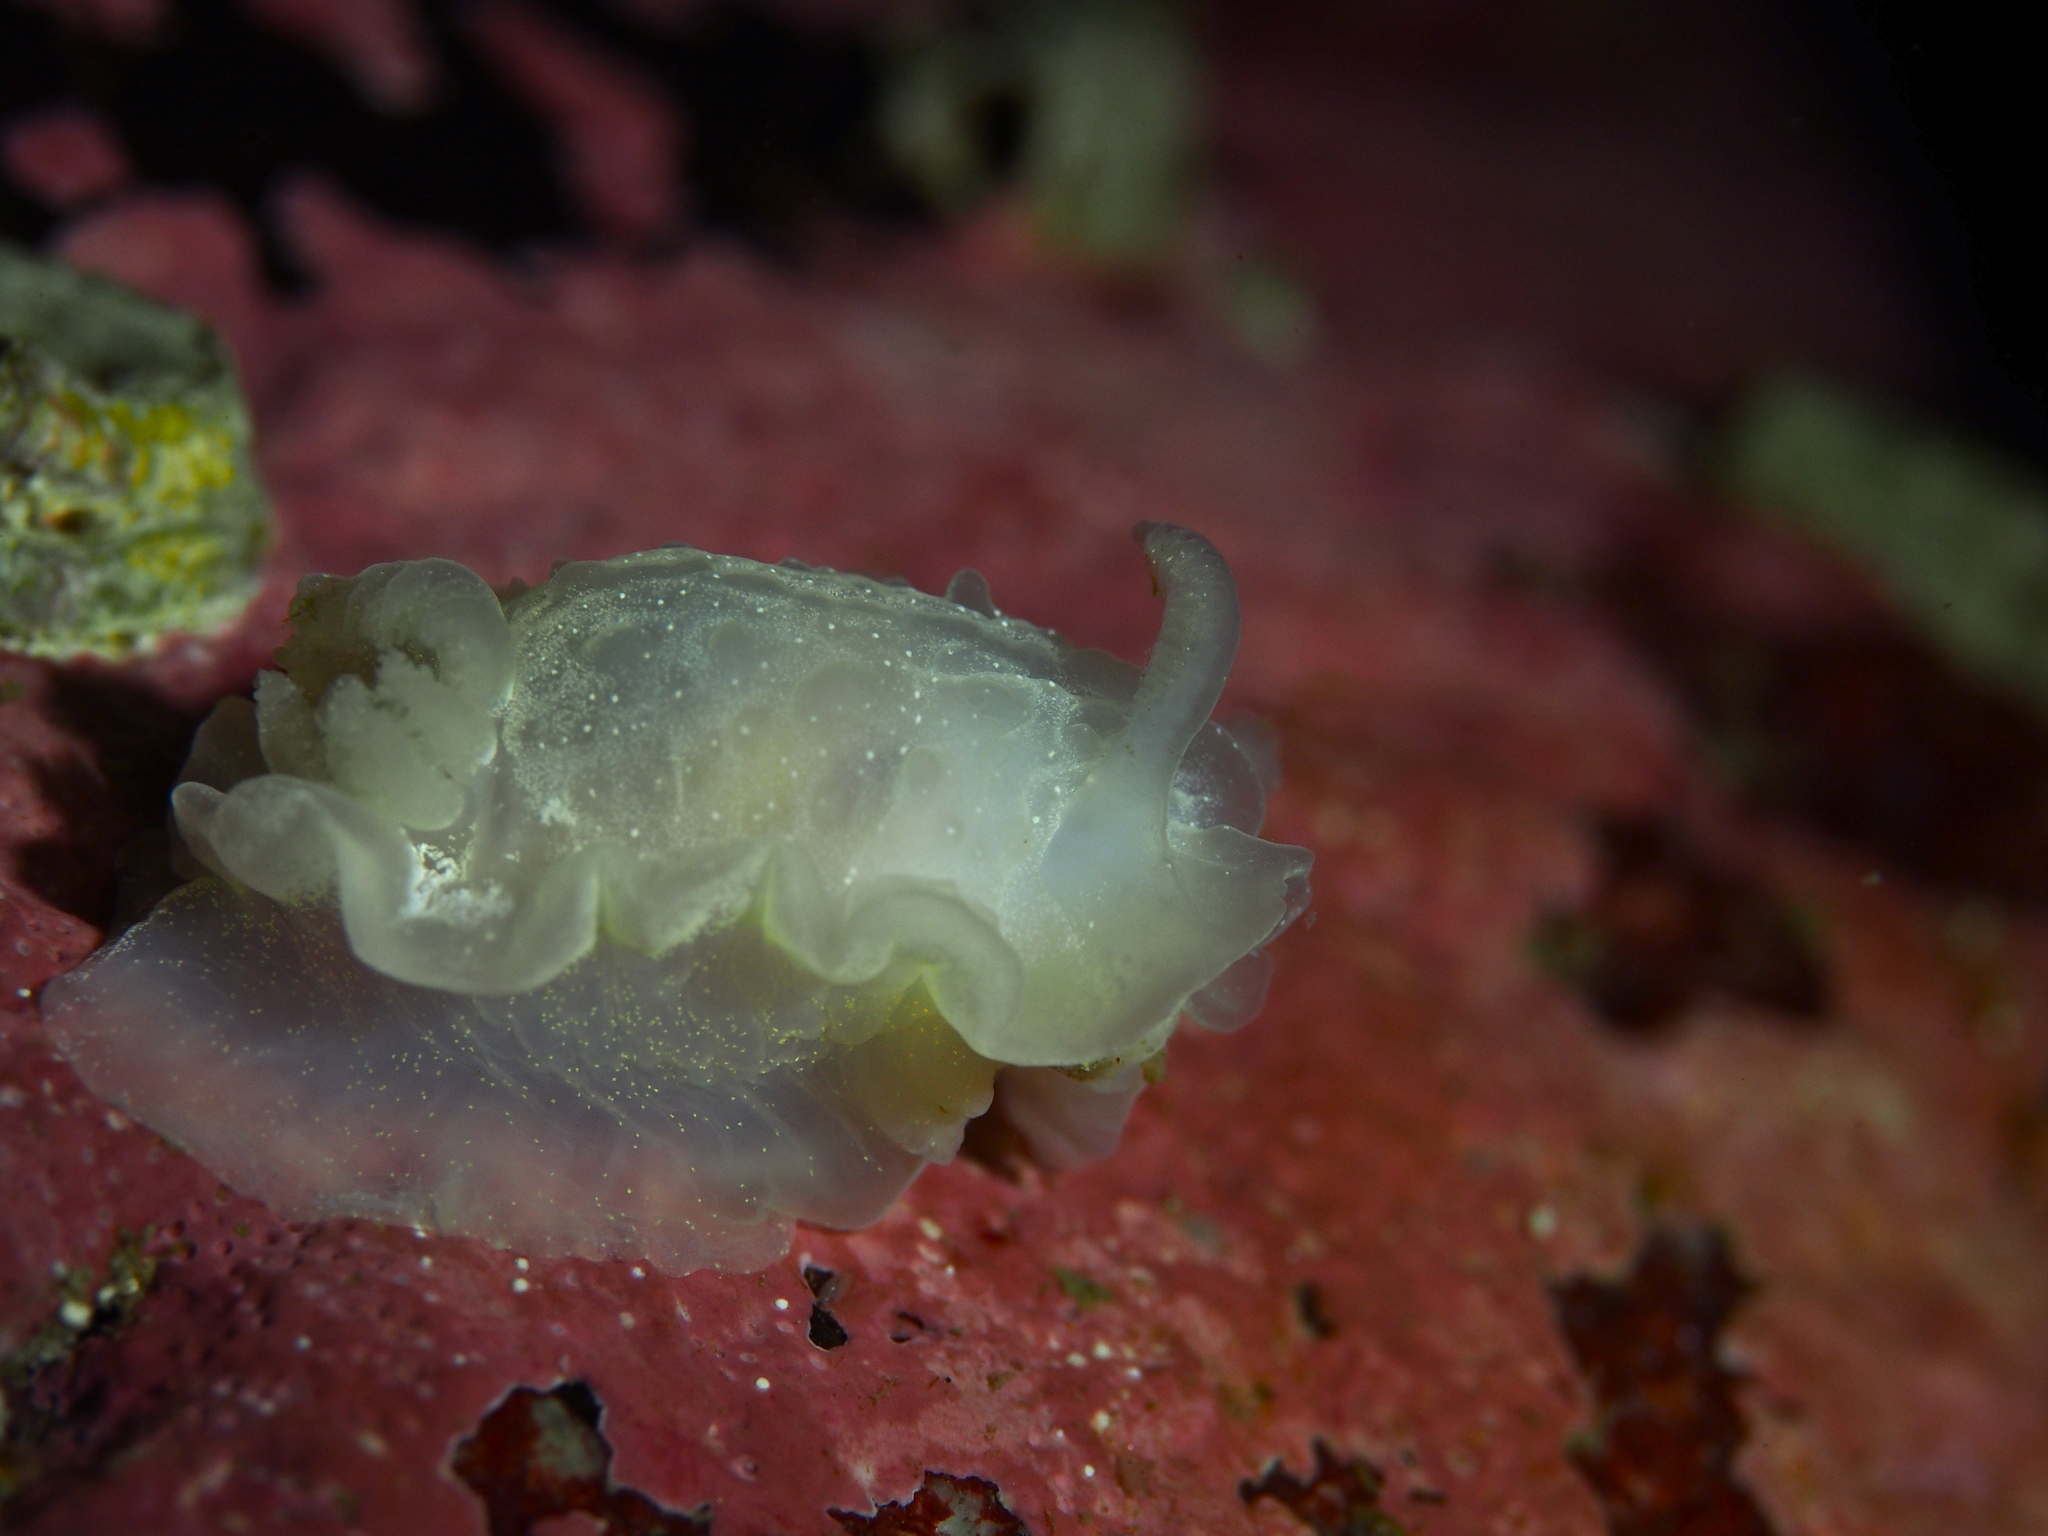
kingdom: Animalia
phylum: Mollusca
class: Gastropoda
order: Nudibranchia
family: Goniodorididae
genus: Okenia
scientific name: Okenia
